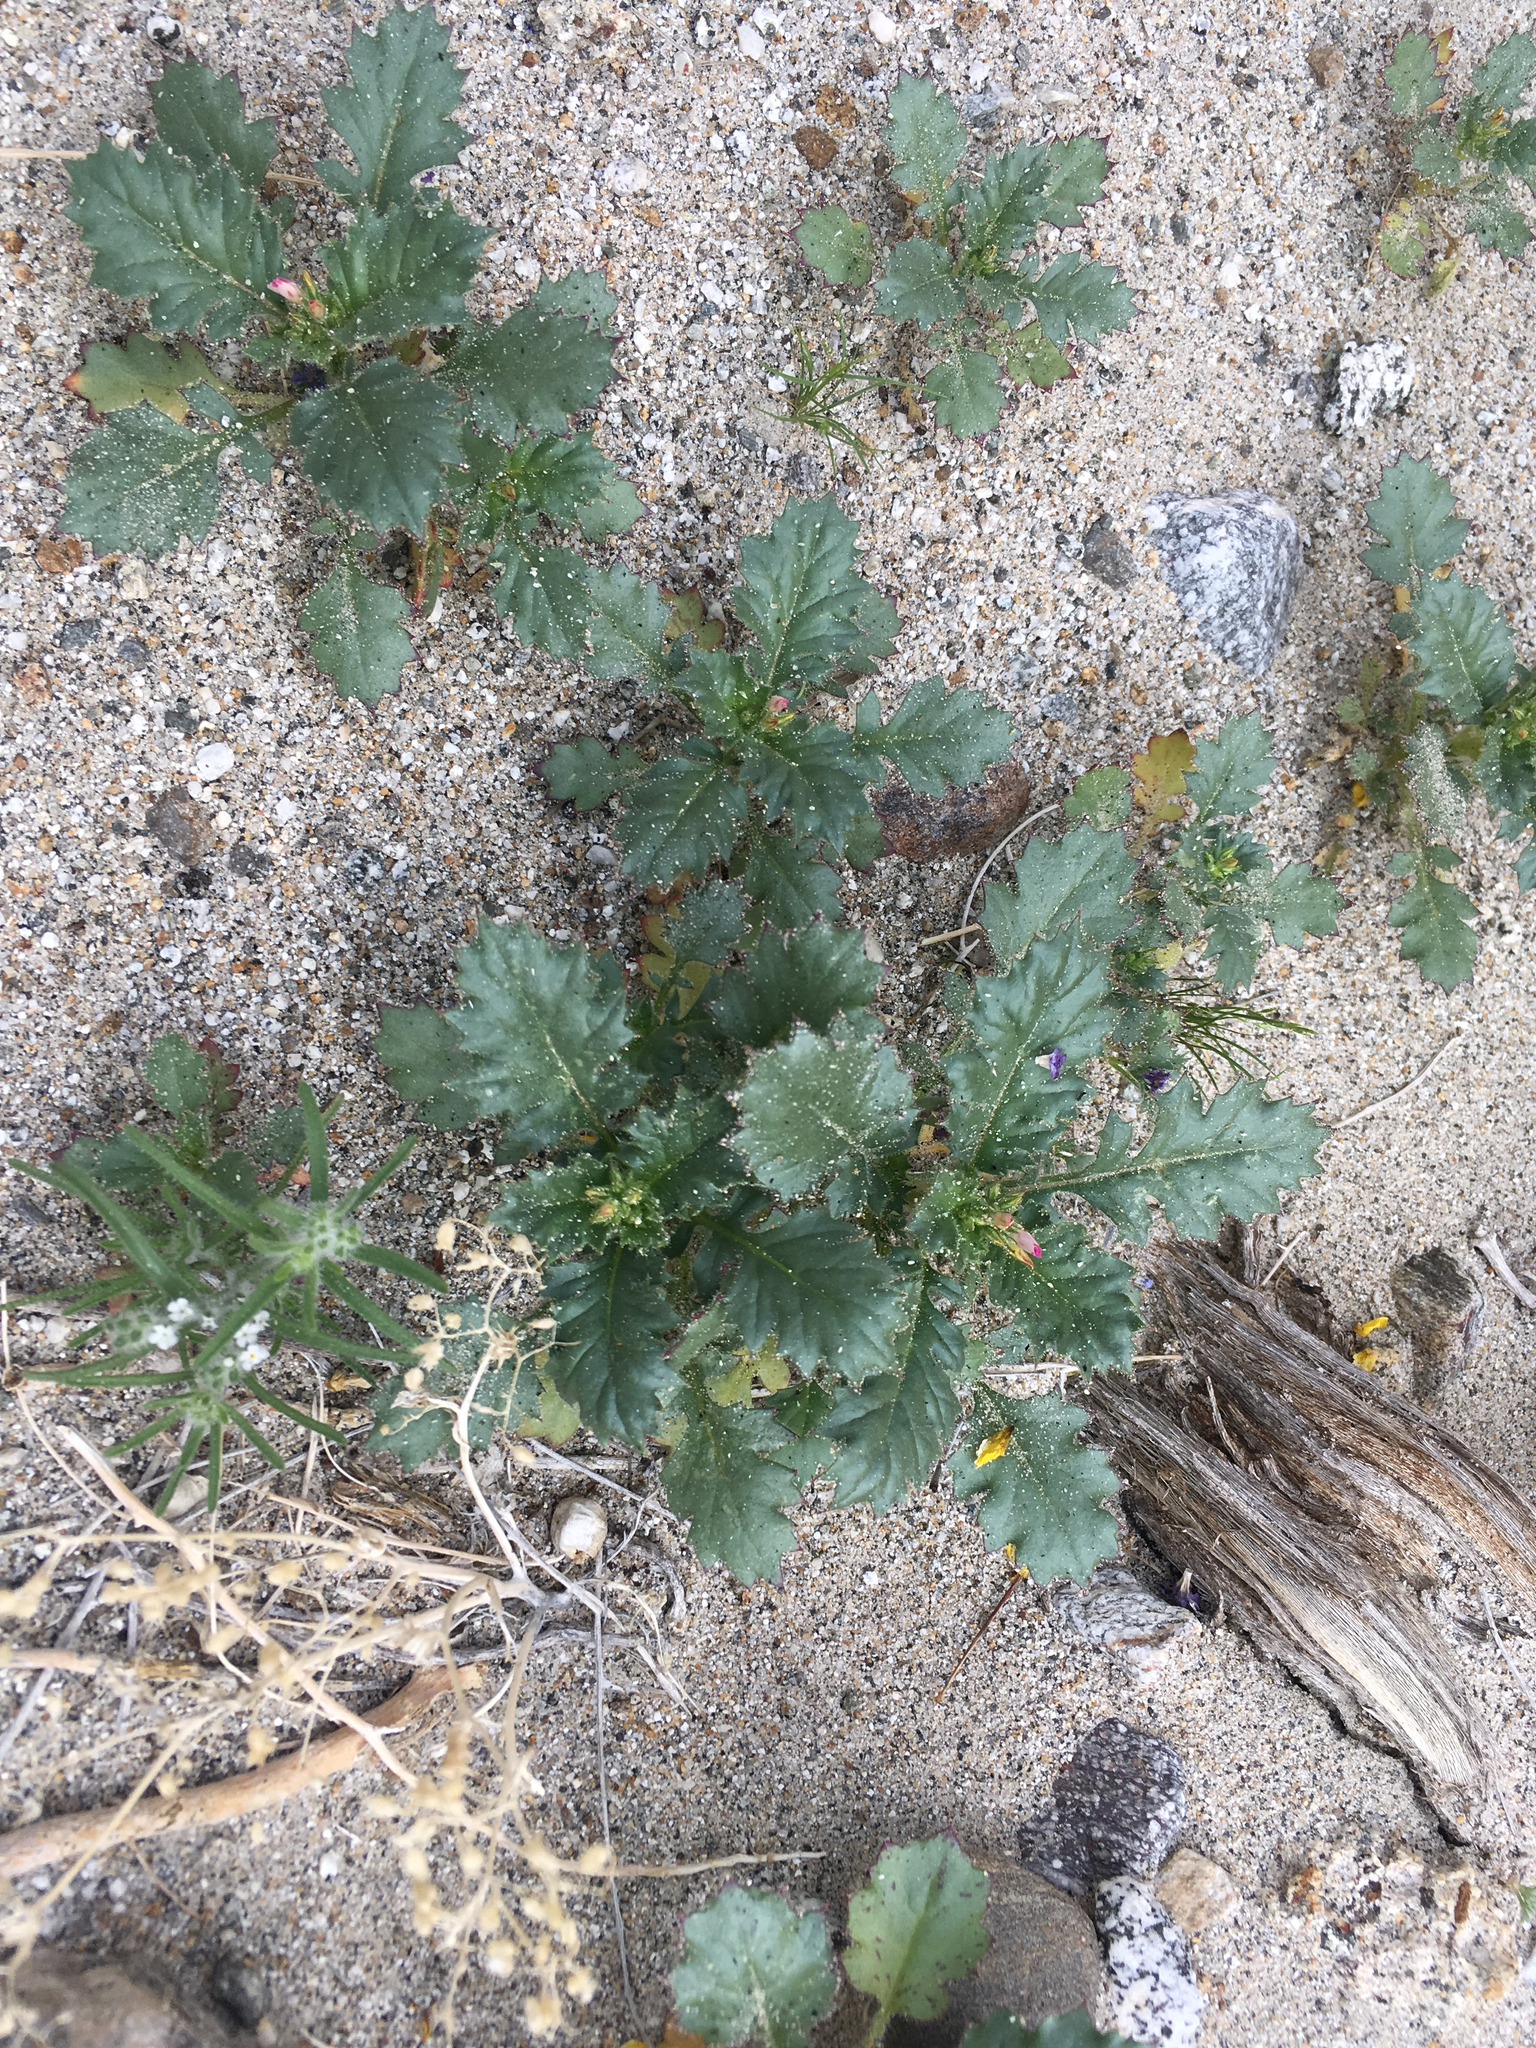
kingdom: Plantae
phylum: Tracheophyta
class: Magnoliopsida
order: Ericales
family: Polemoniaceae
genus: Aliciella
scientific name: Aliciella latifolia
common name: Broad-leaf gilia
